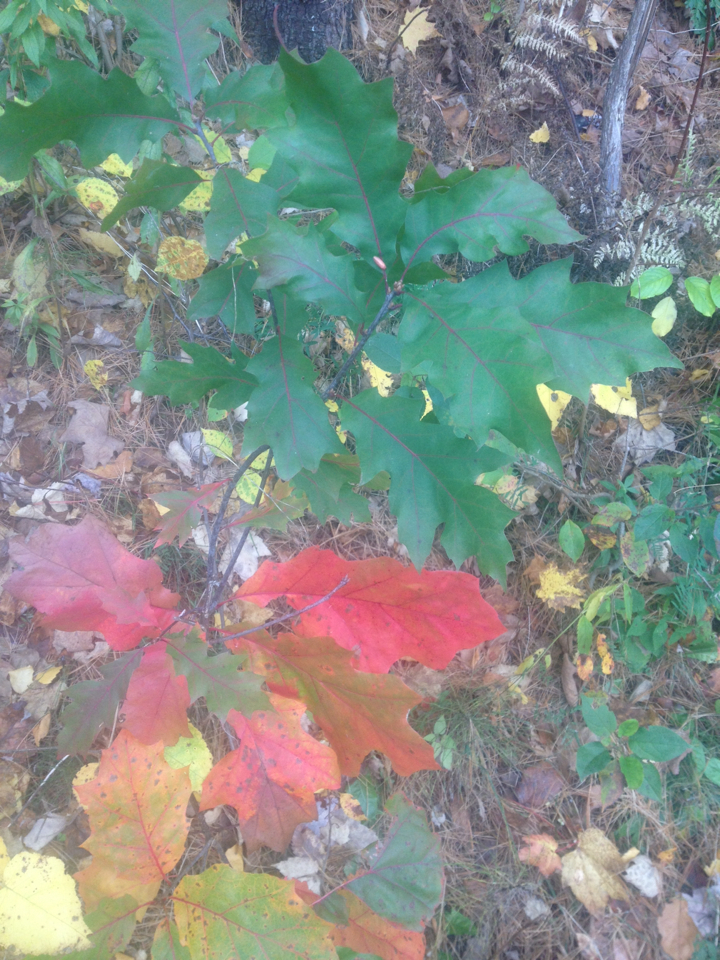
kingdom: Plantae
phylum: Tracheophyta
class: Magnoliopsida
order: Fagales
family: Fagaceae
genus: Quercus
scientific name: Quercus rubra
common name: Red oak
